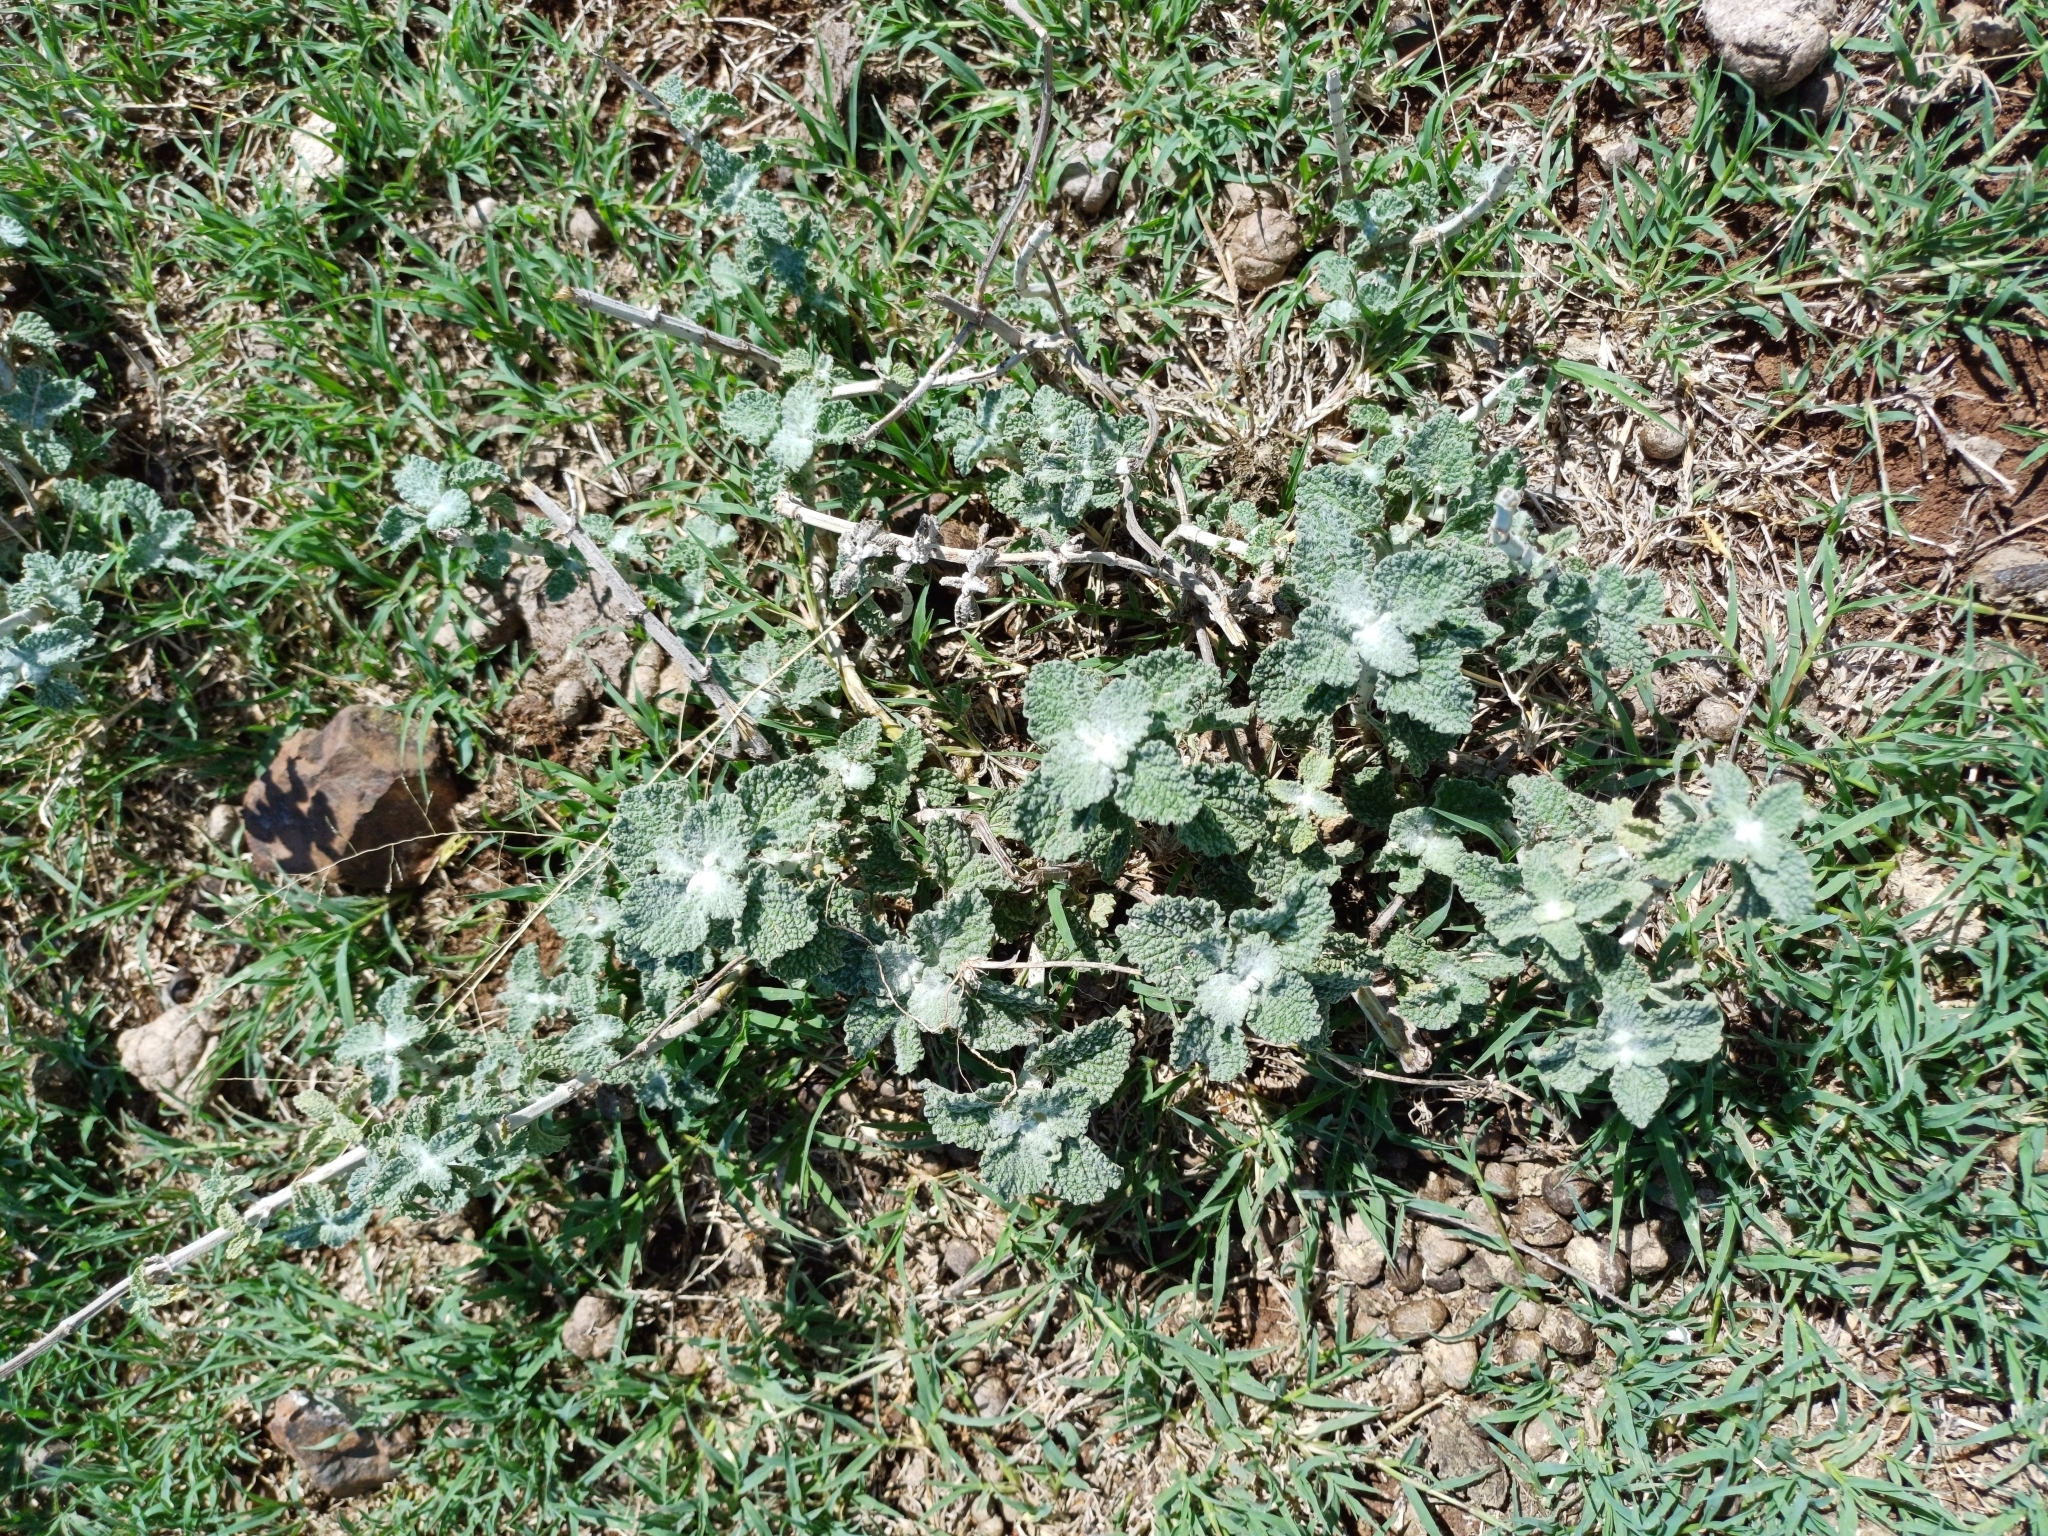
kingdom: Plantae
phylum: Tracheophyta
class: Magnoliopsida
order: Lamiales
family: Lamiaceae
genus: Marrubium
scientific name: Marrubium vulgare
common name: Horehound
